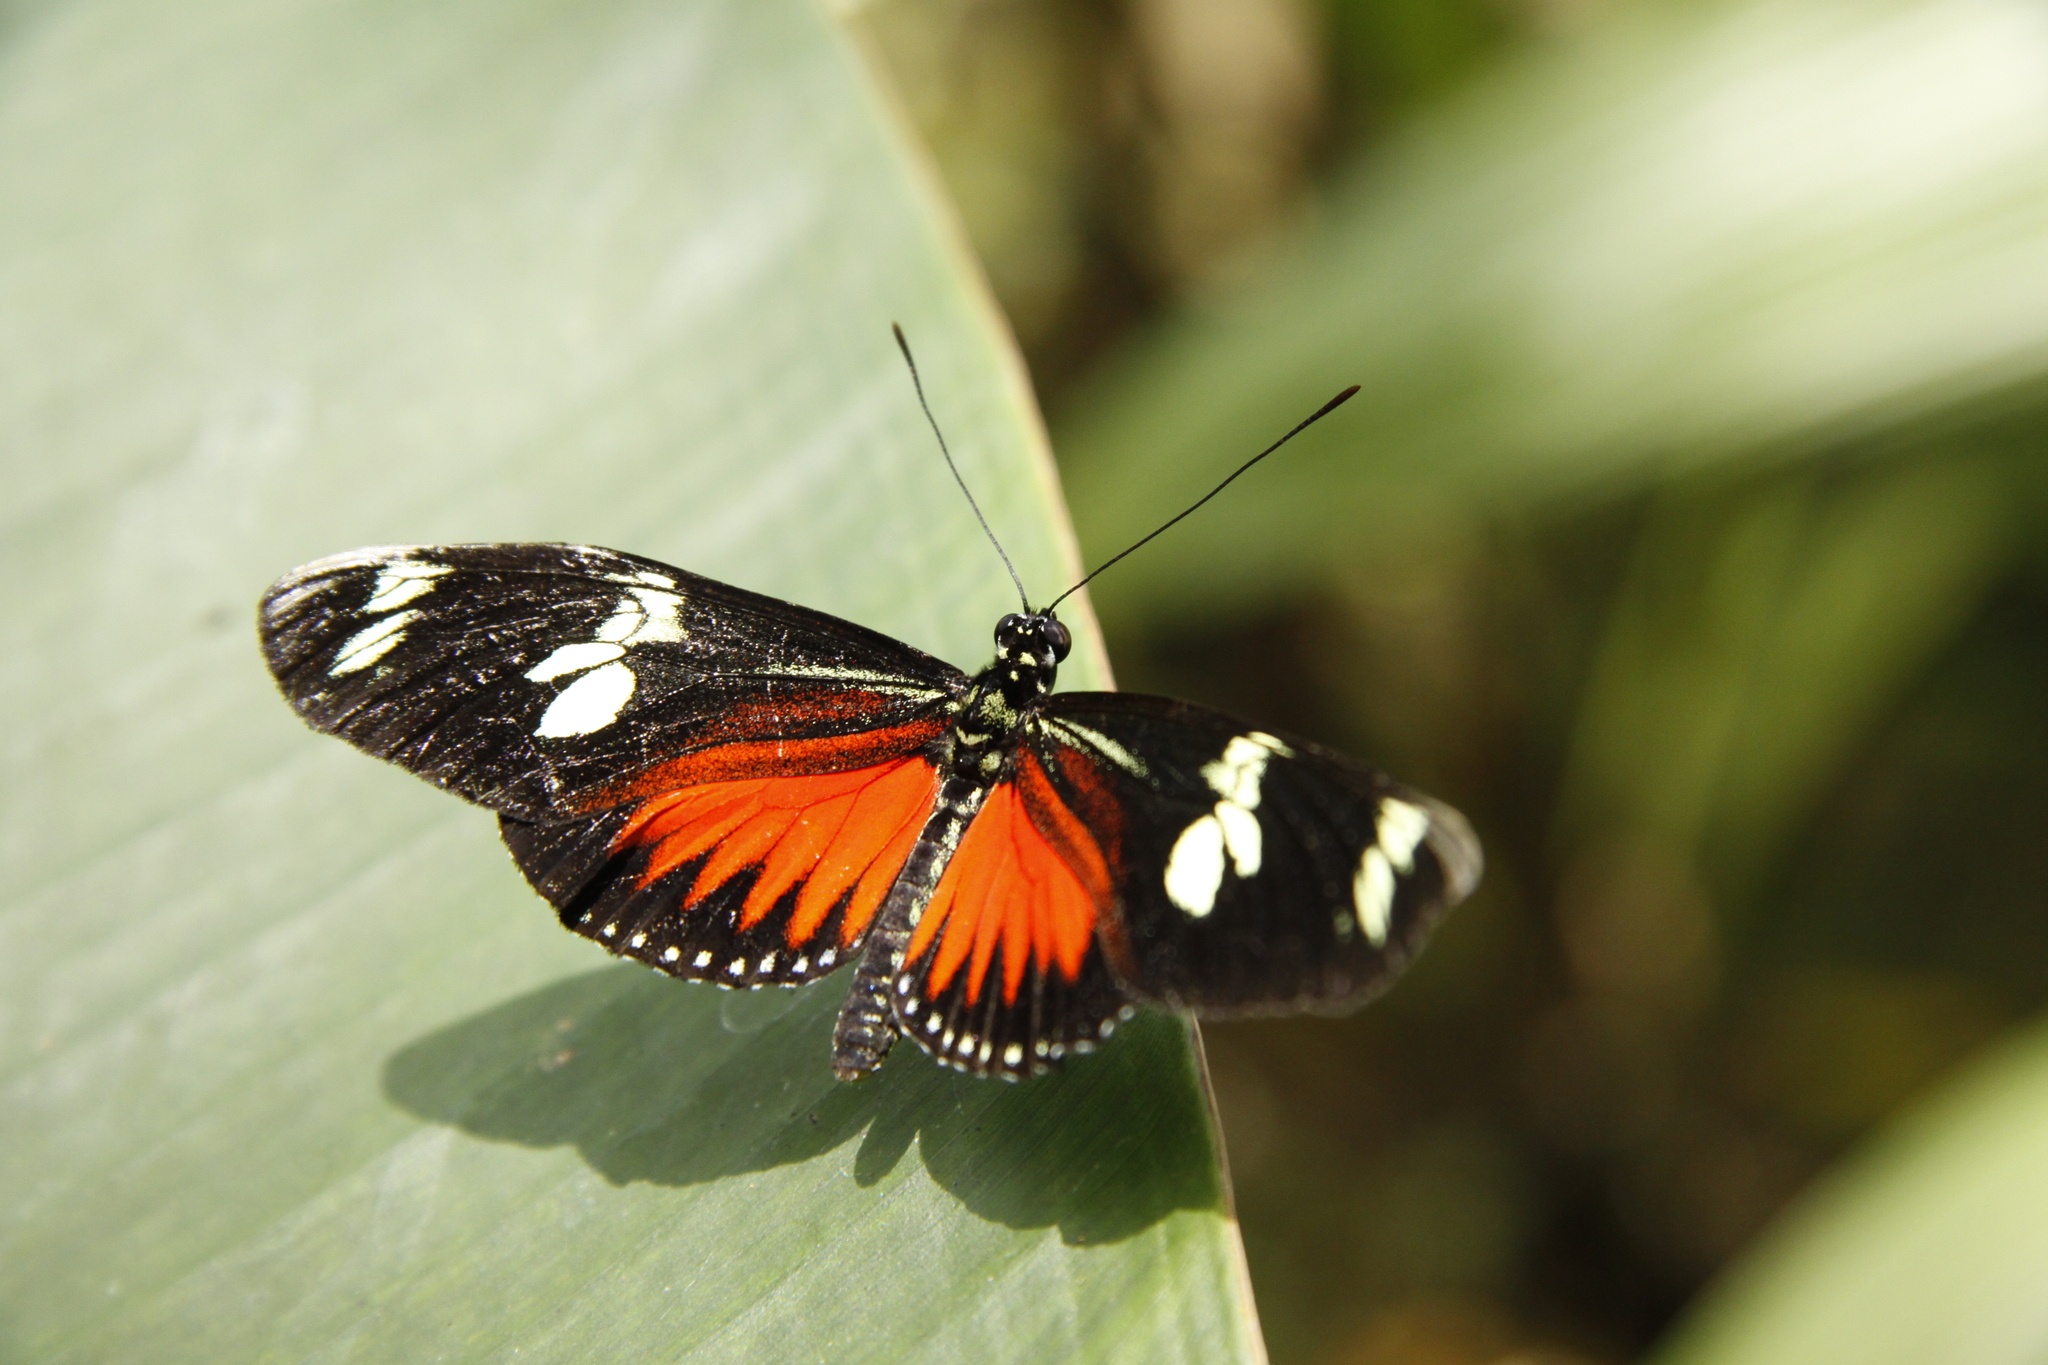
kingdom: Animalia
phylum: Arthropoda
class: Insecta
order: Lepidoptera
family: Nymphalidae
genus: Heliconius
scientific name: Heliconius doris
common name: Doris longwing
